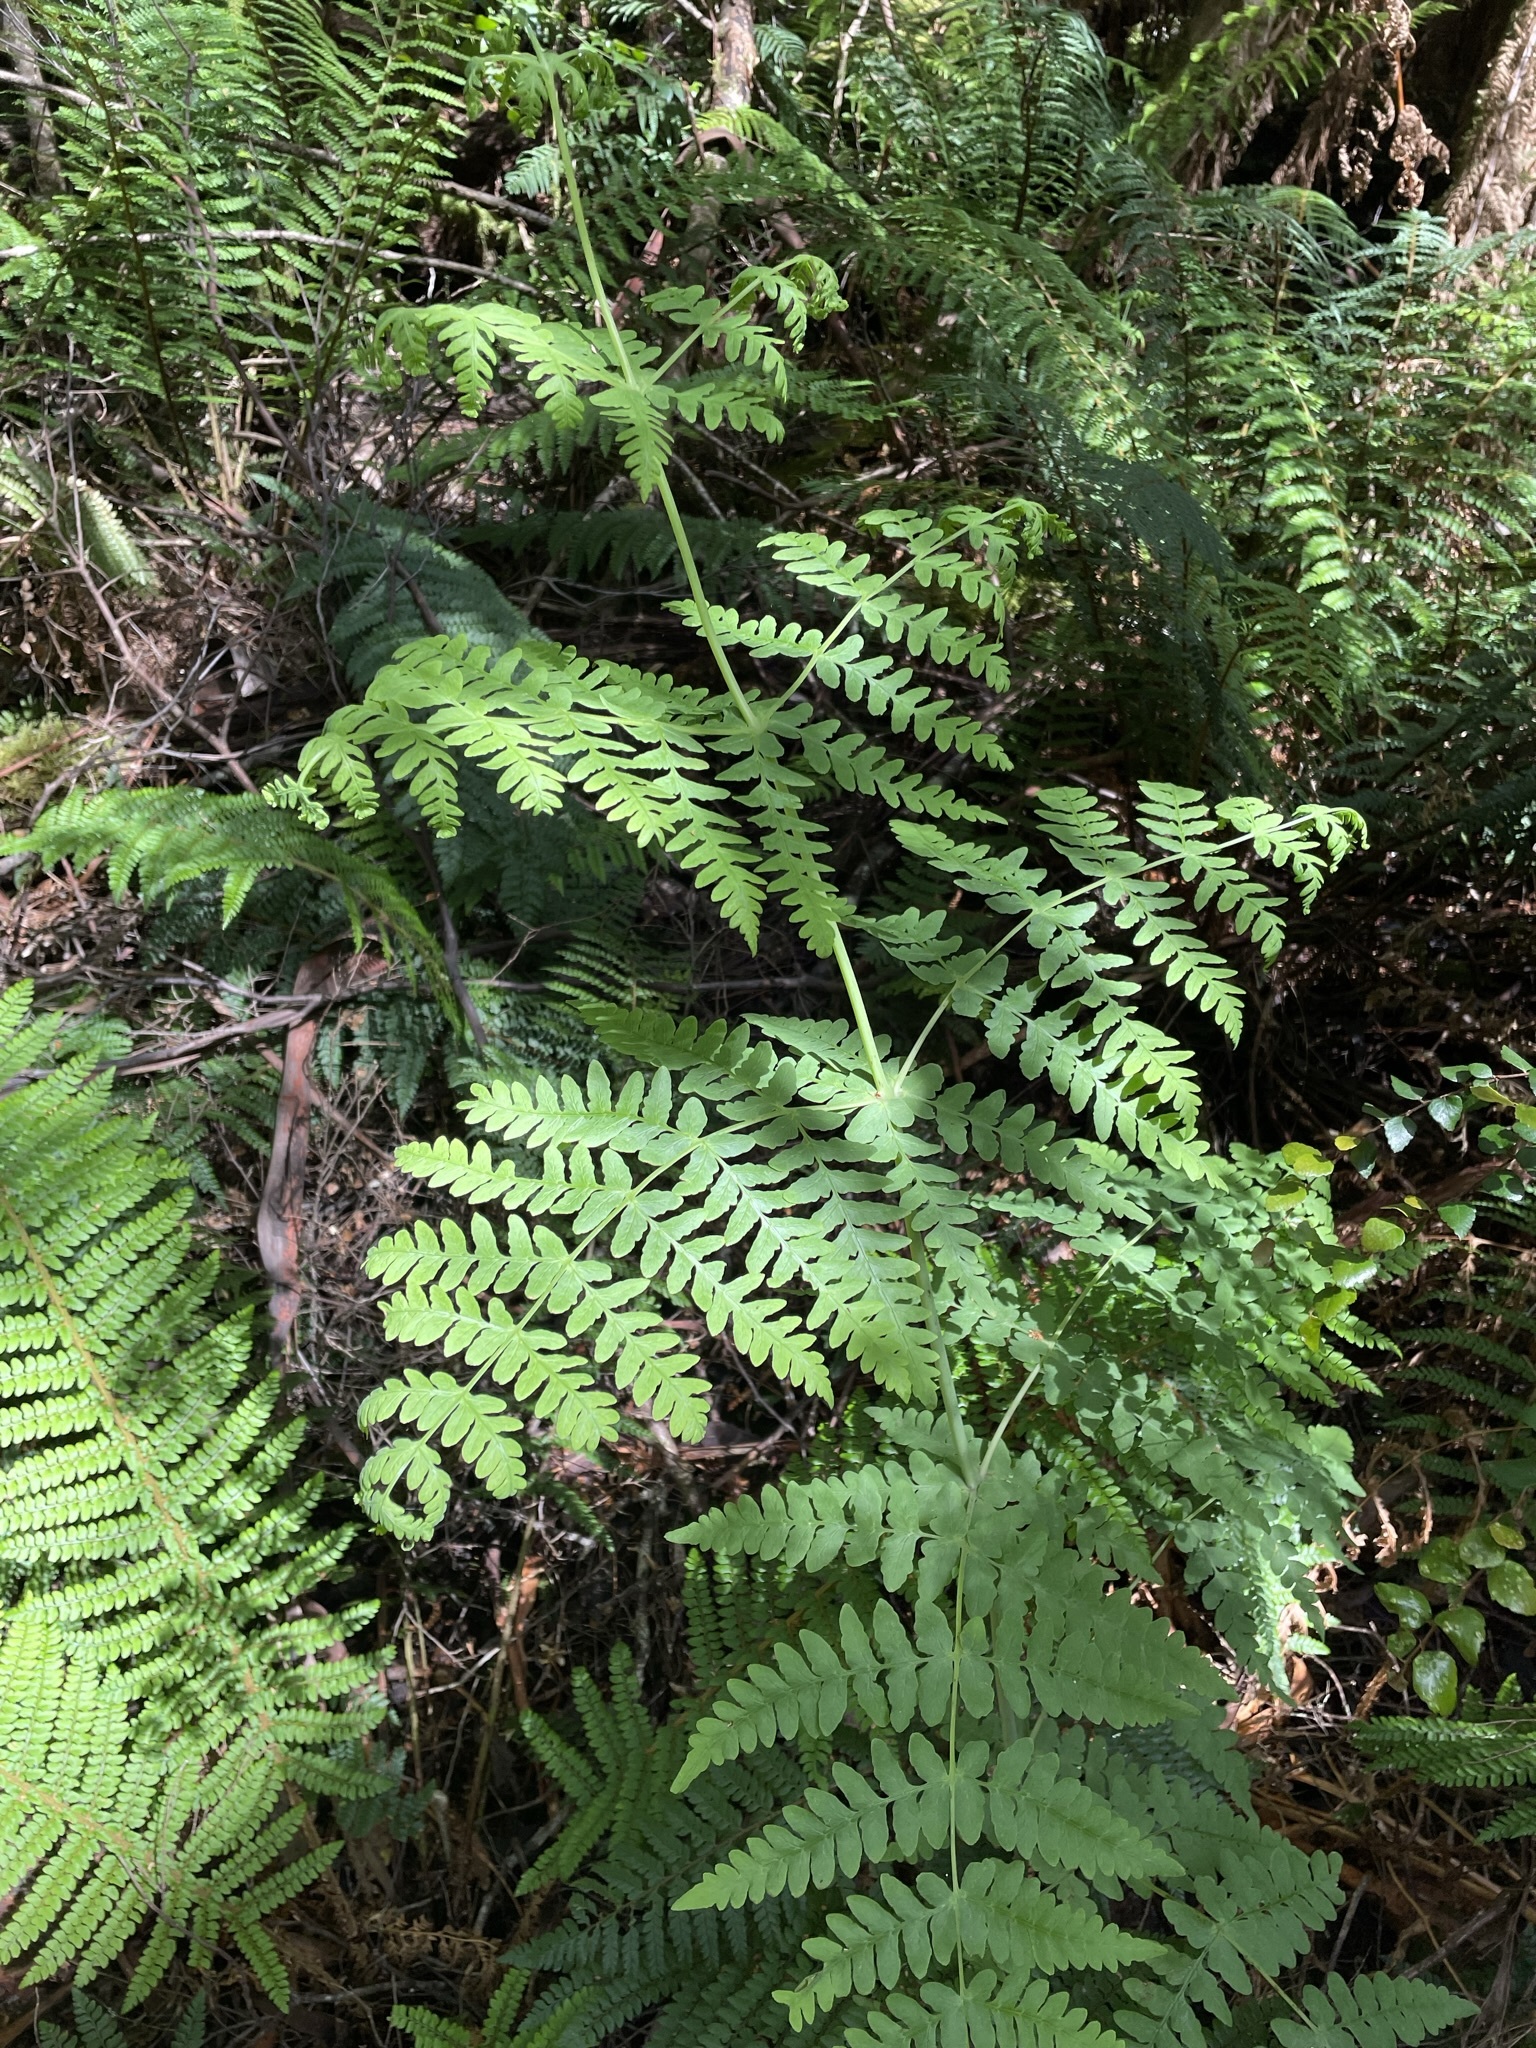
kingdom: Plantae
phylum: Tracheophyta
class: Polypodiopsida
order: Polypodiales
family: Dennstaedtiaceae
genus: Histiopteris
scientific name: Histiopteris incisa
